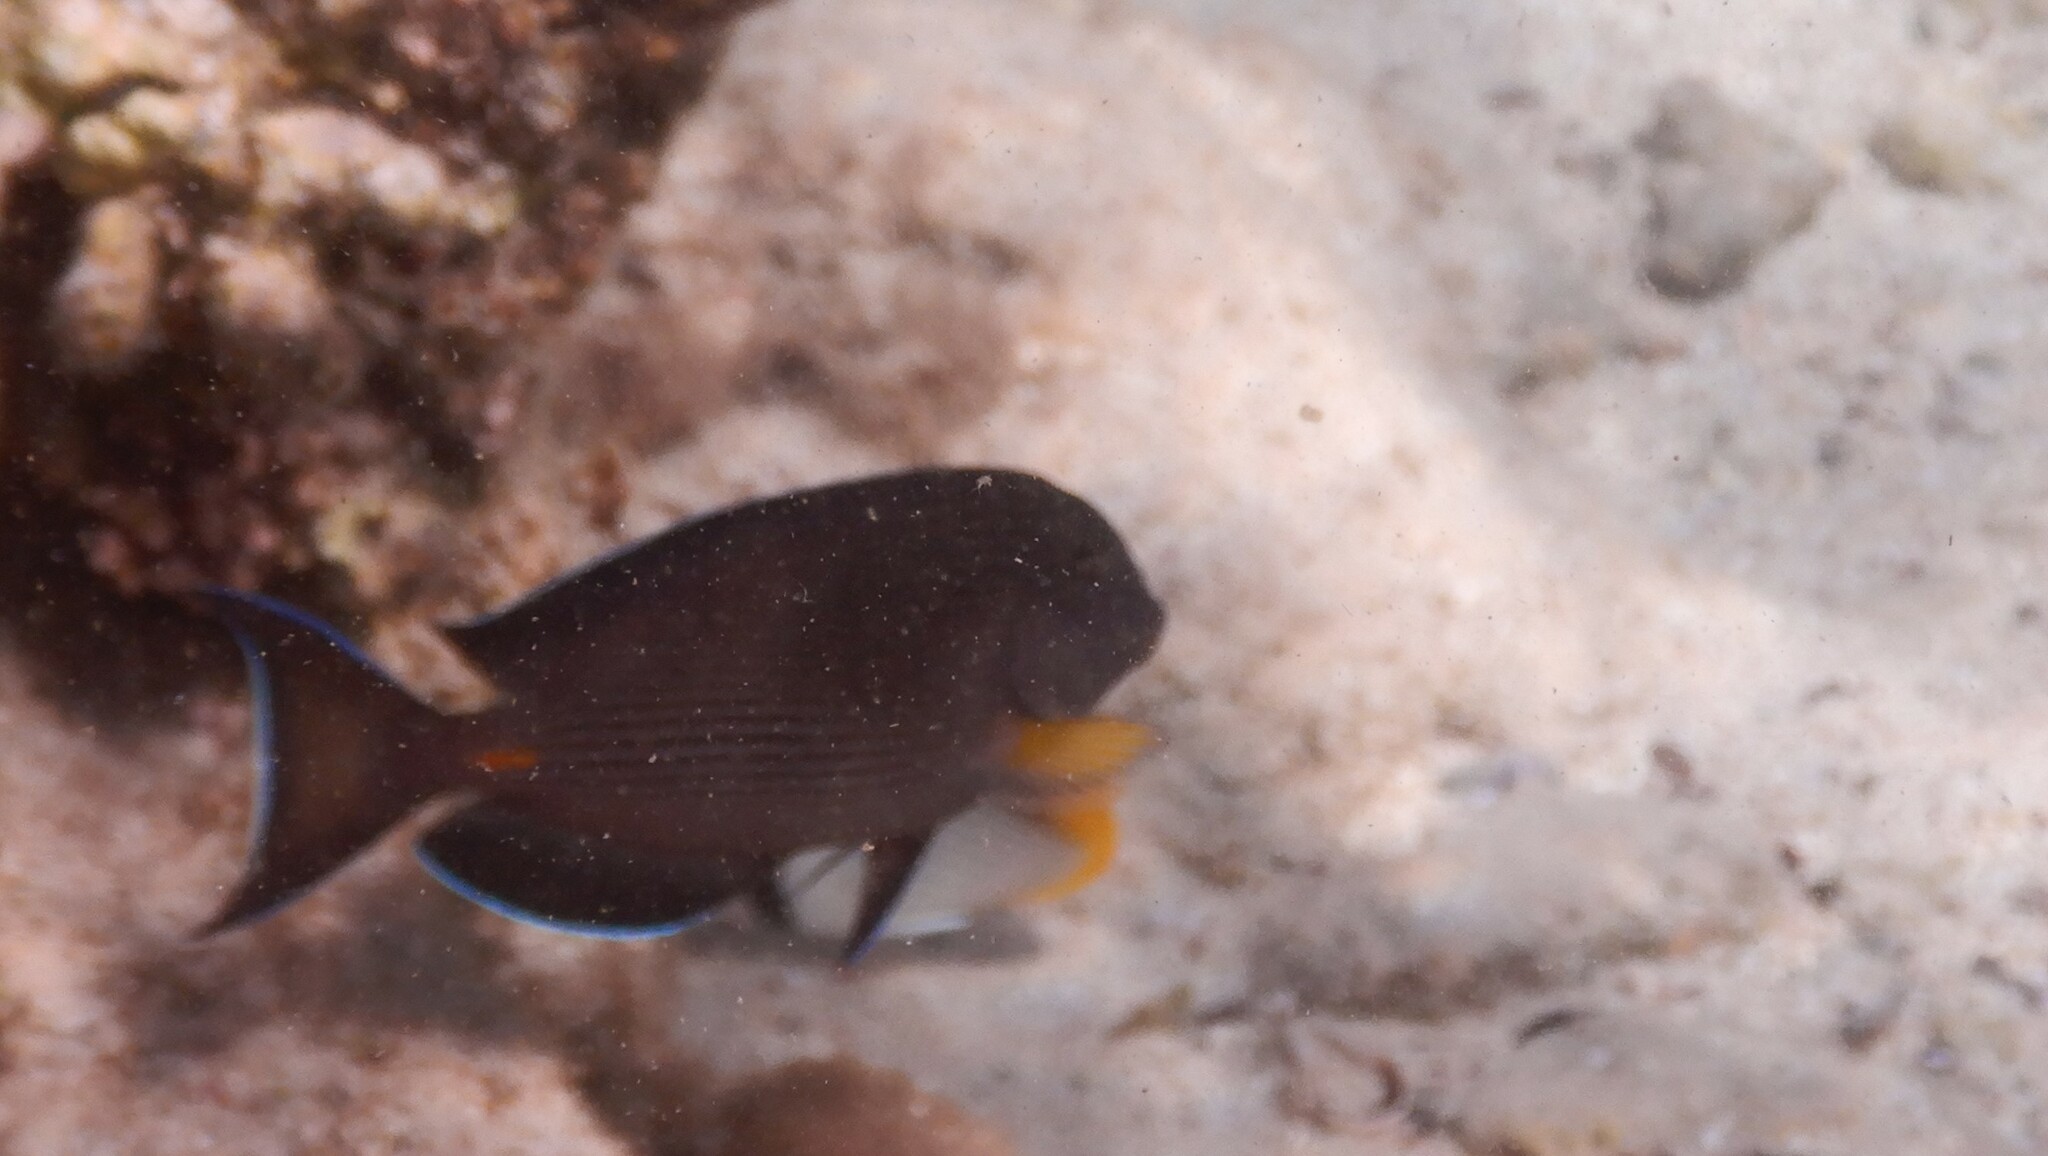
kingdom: Animalia
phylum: Chordata
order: Perciformes
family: Acanthuridae
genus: Acanthurus
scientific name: Acanthurus sohal
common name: Red sea surgeonfish
